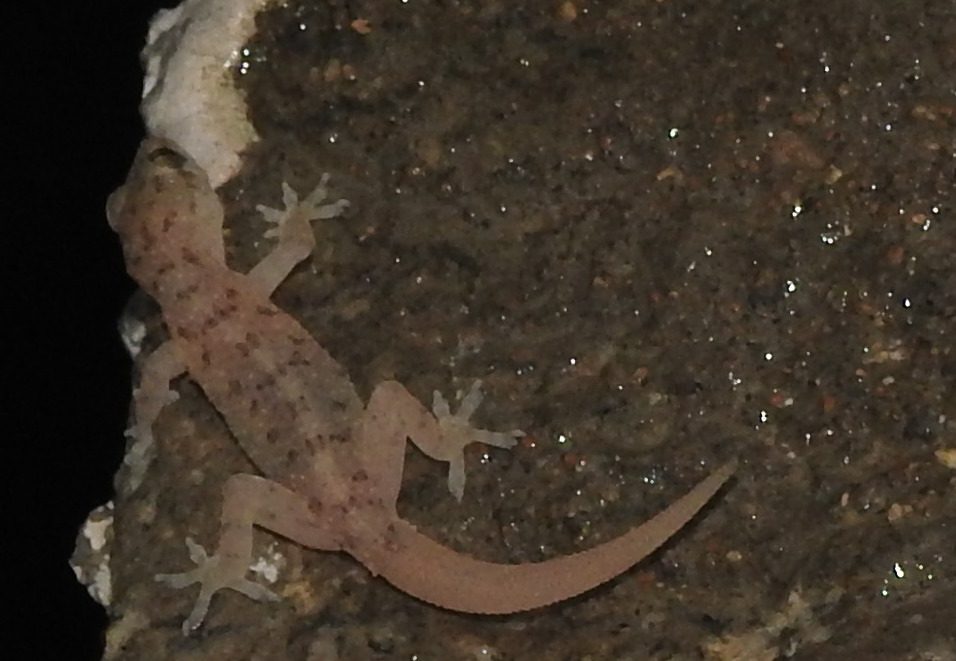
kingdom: Animalia
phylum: Chordata
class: Squamata
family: Gekkonidae
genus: Hemidactylus
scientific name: Hemidactylus parvimaculatus
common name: Spotted house gecko
